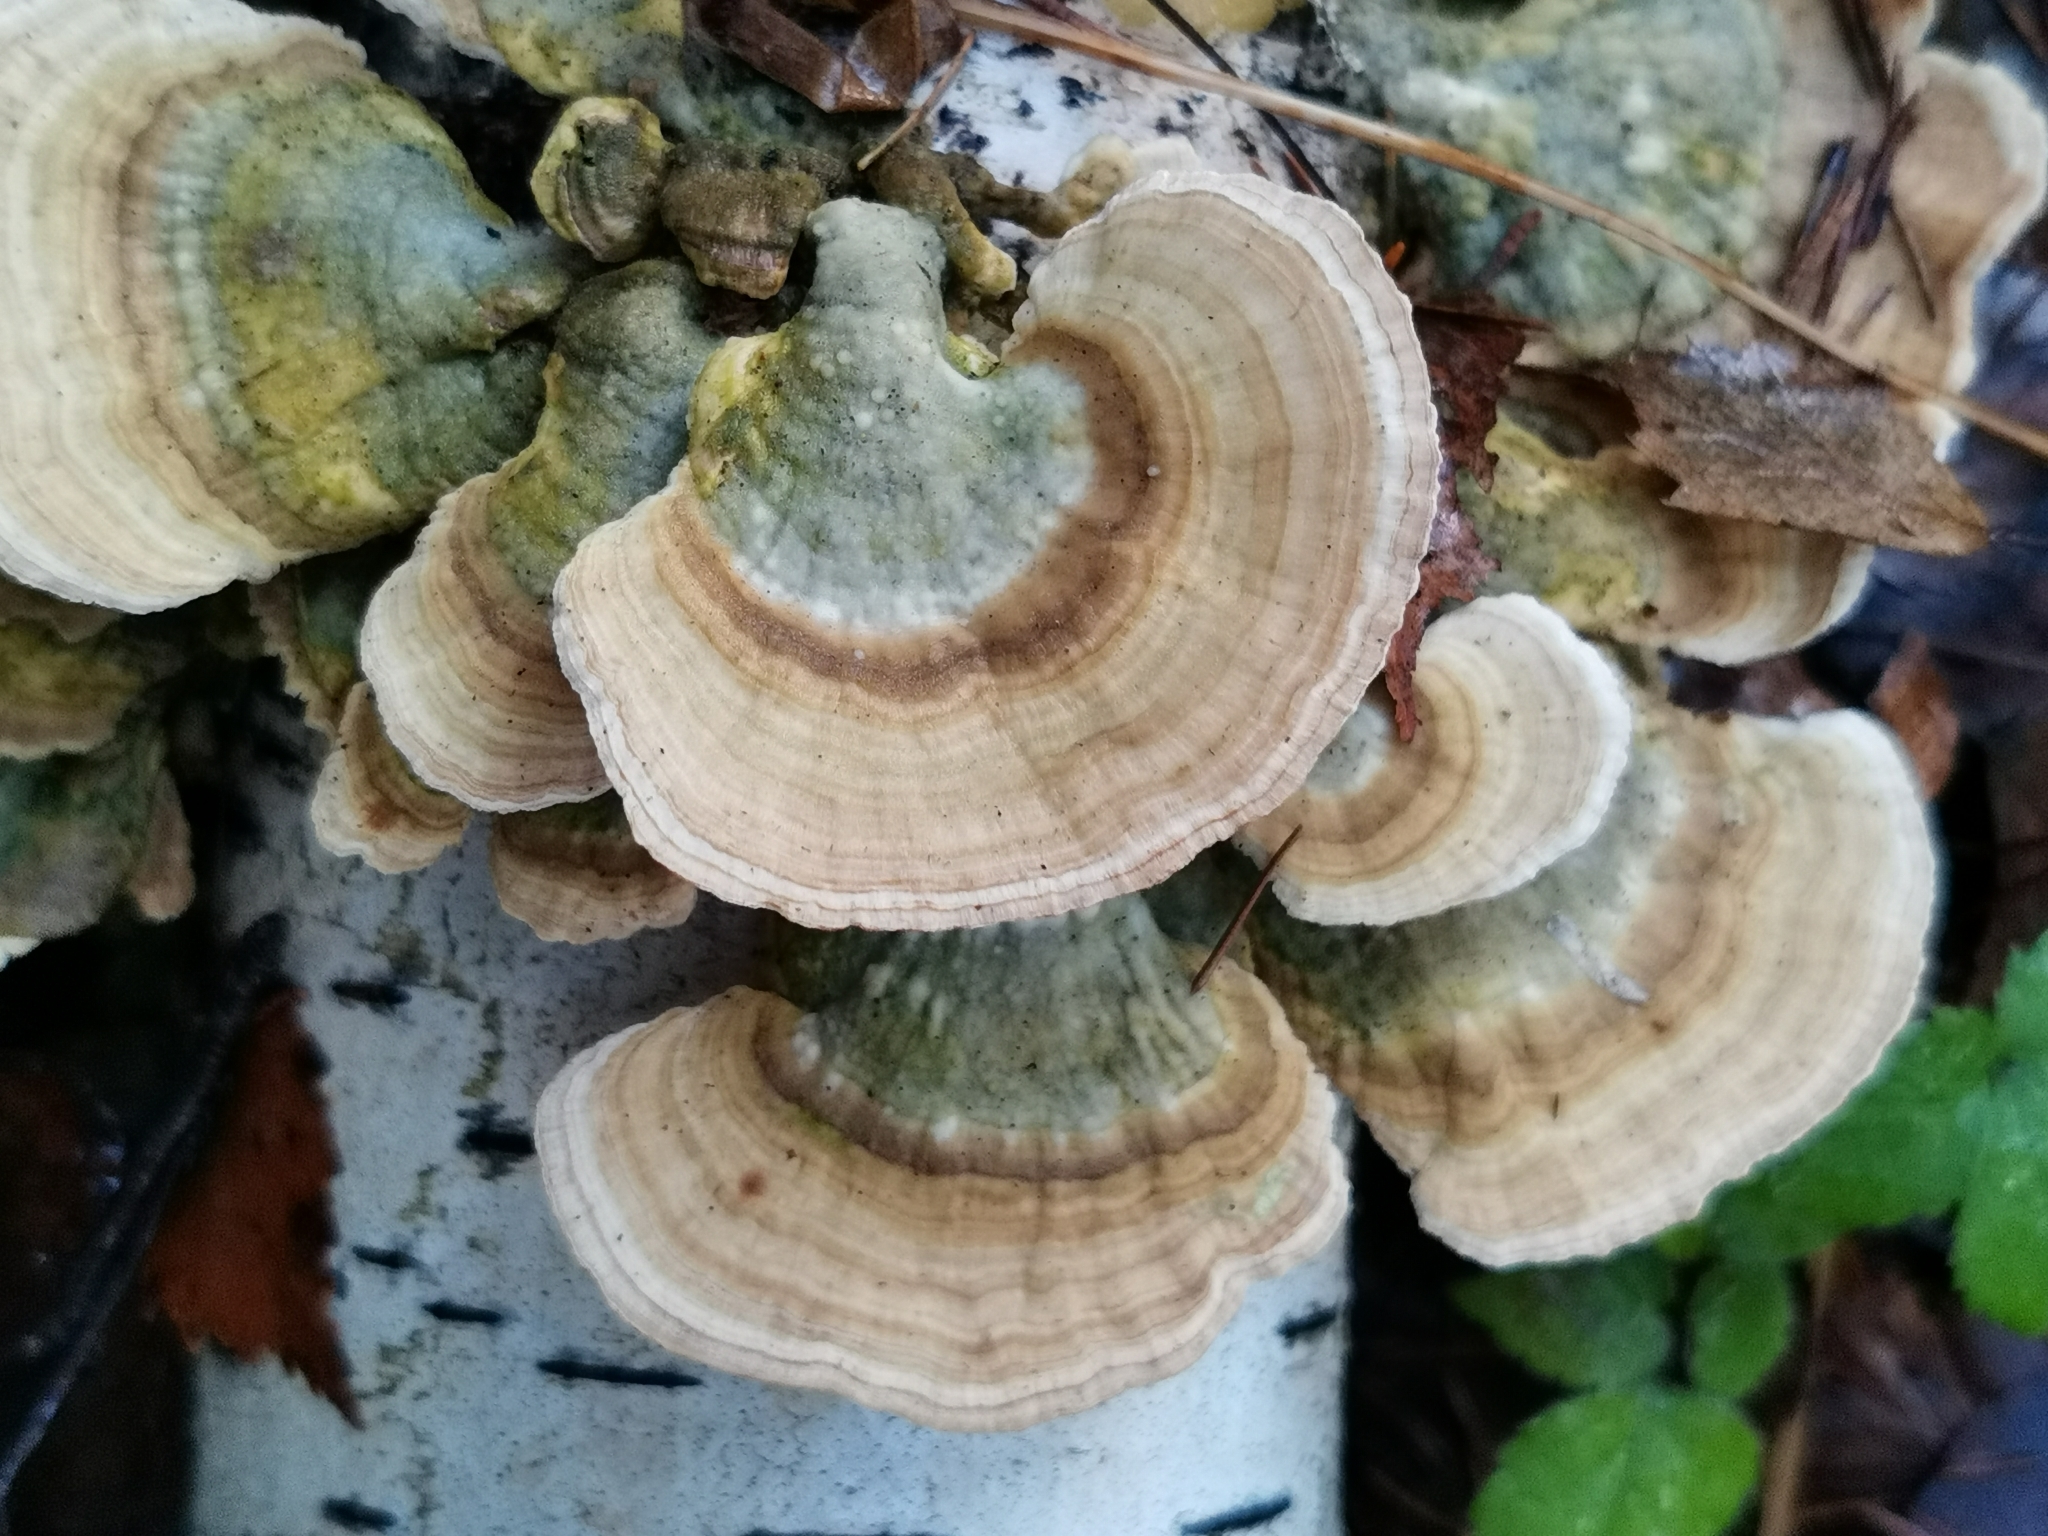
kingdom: Fungi
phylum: Basidiomycota
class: Agaricomycetes
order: Hymenochaetales
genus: Trichaptum
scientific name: Trichaptum biforme
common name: Violet-toothed polypore
